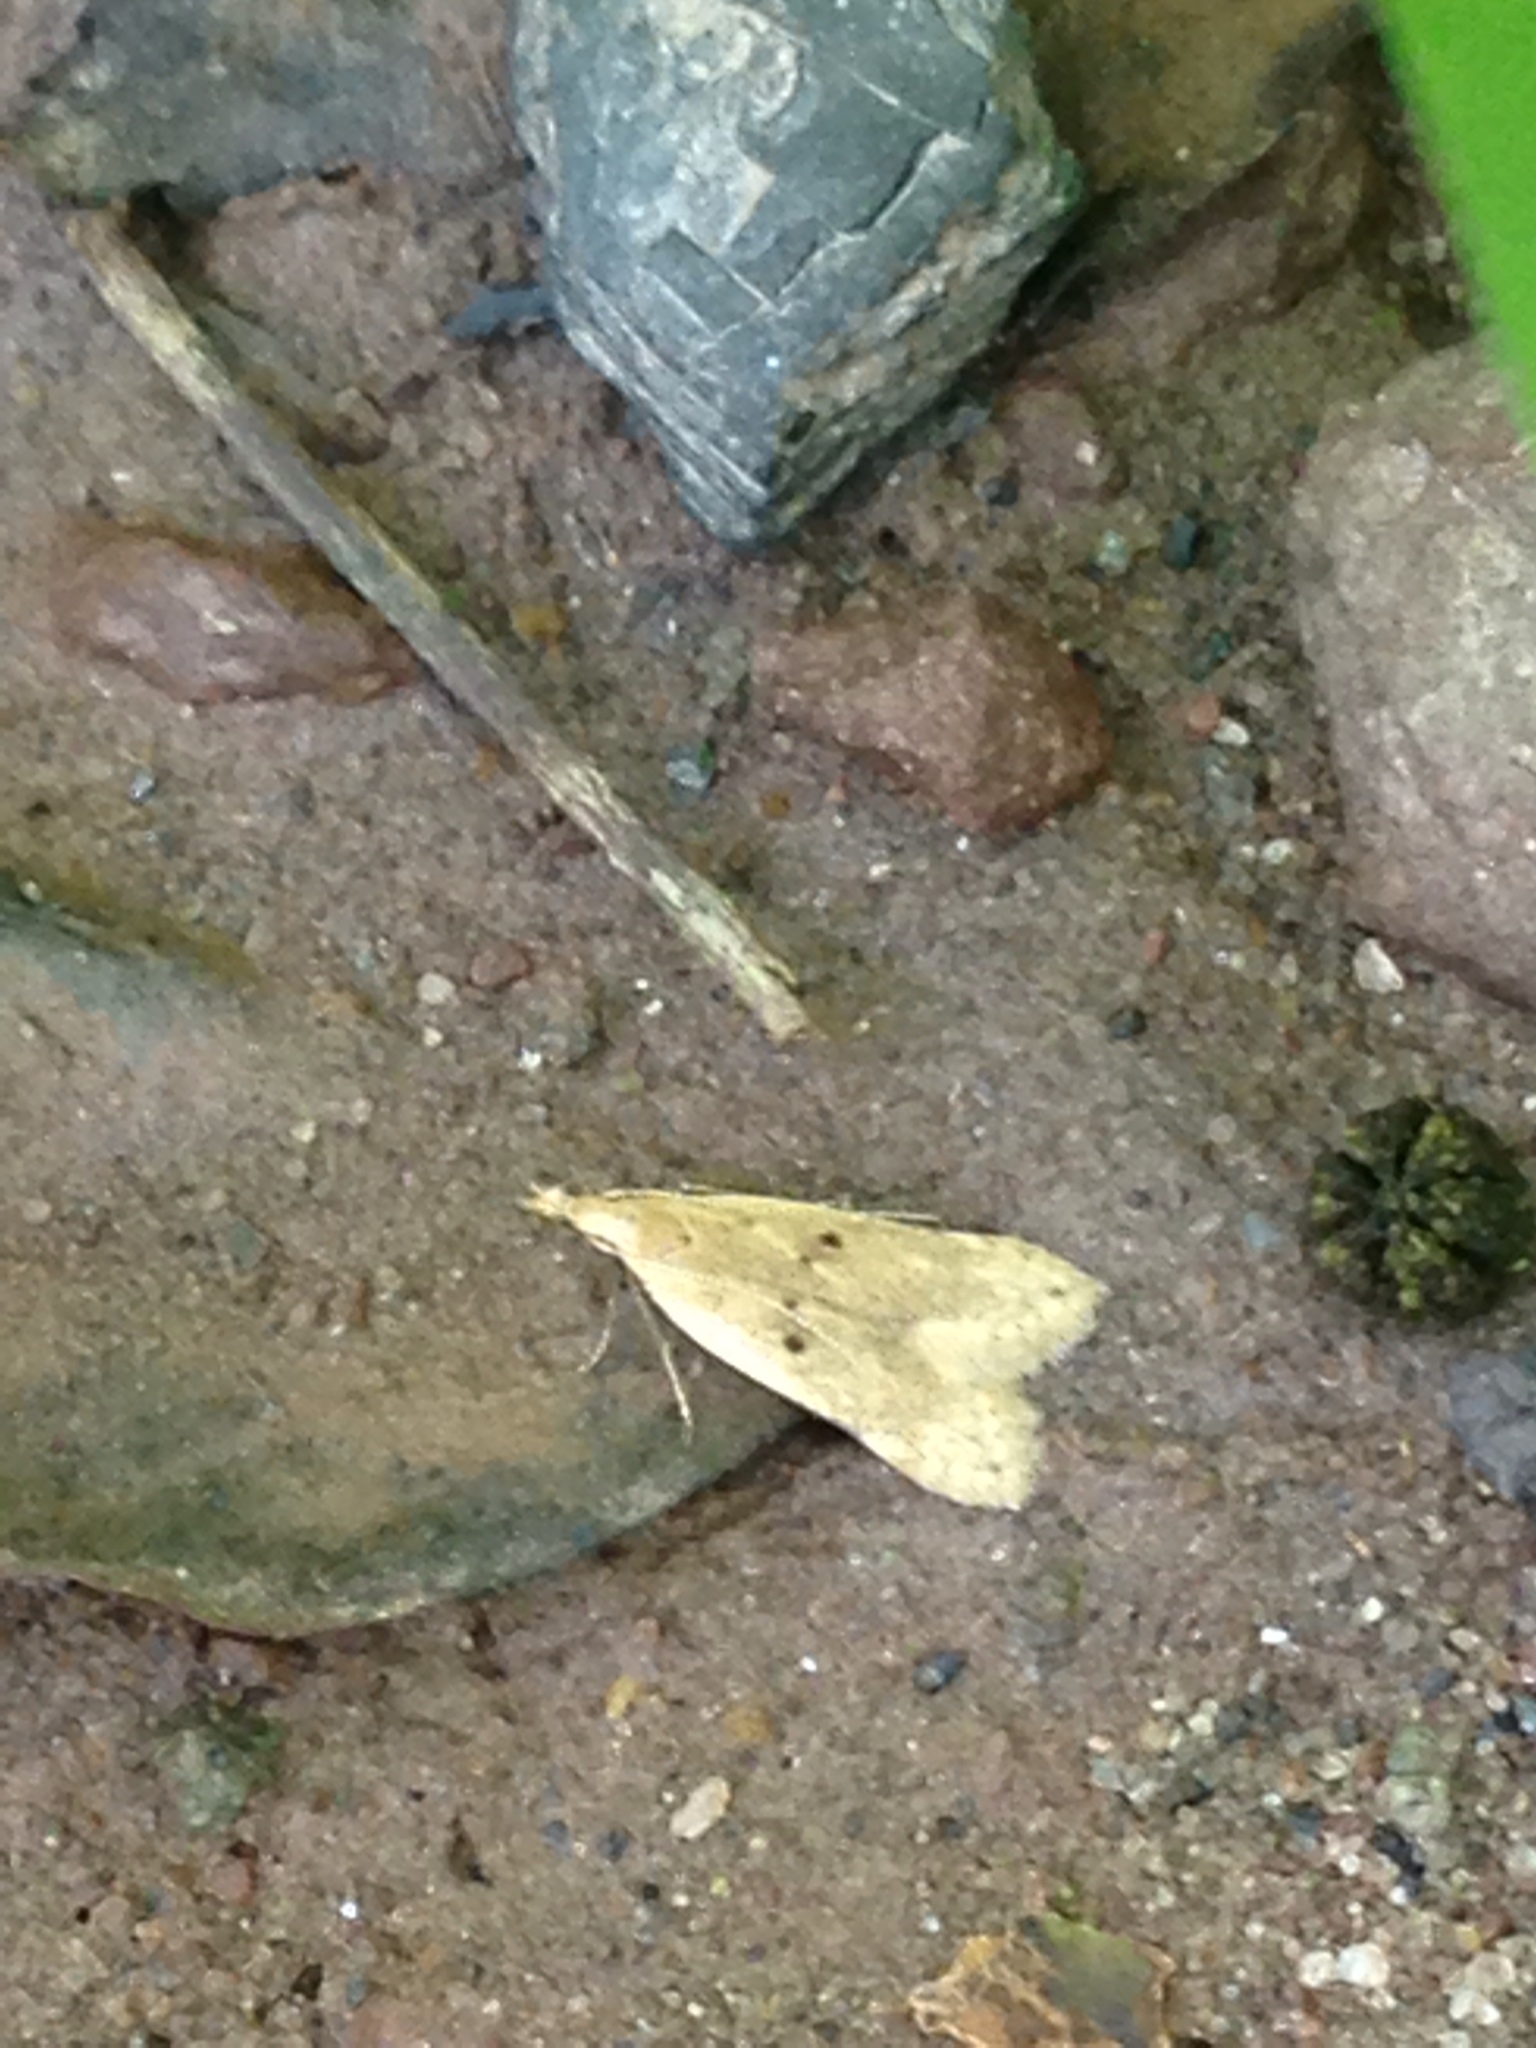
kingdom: Animalia
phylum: Arthropoda
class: Insecta
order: Lepidoptera
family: Gelechiidae
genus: Dichomeris
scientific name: Dichomeris punctipennella
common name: Many-spotted dichomeris moth
